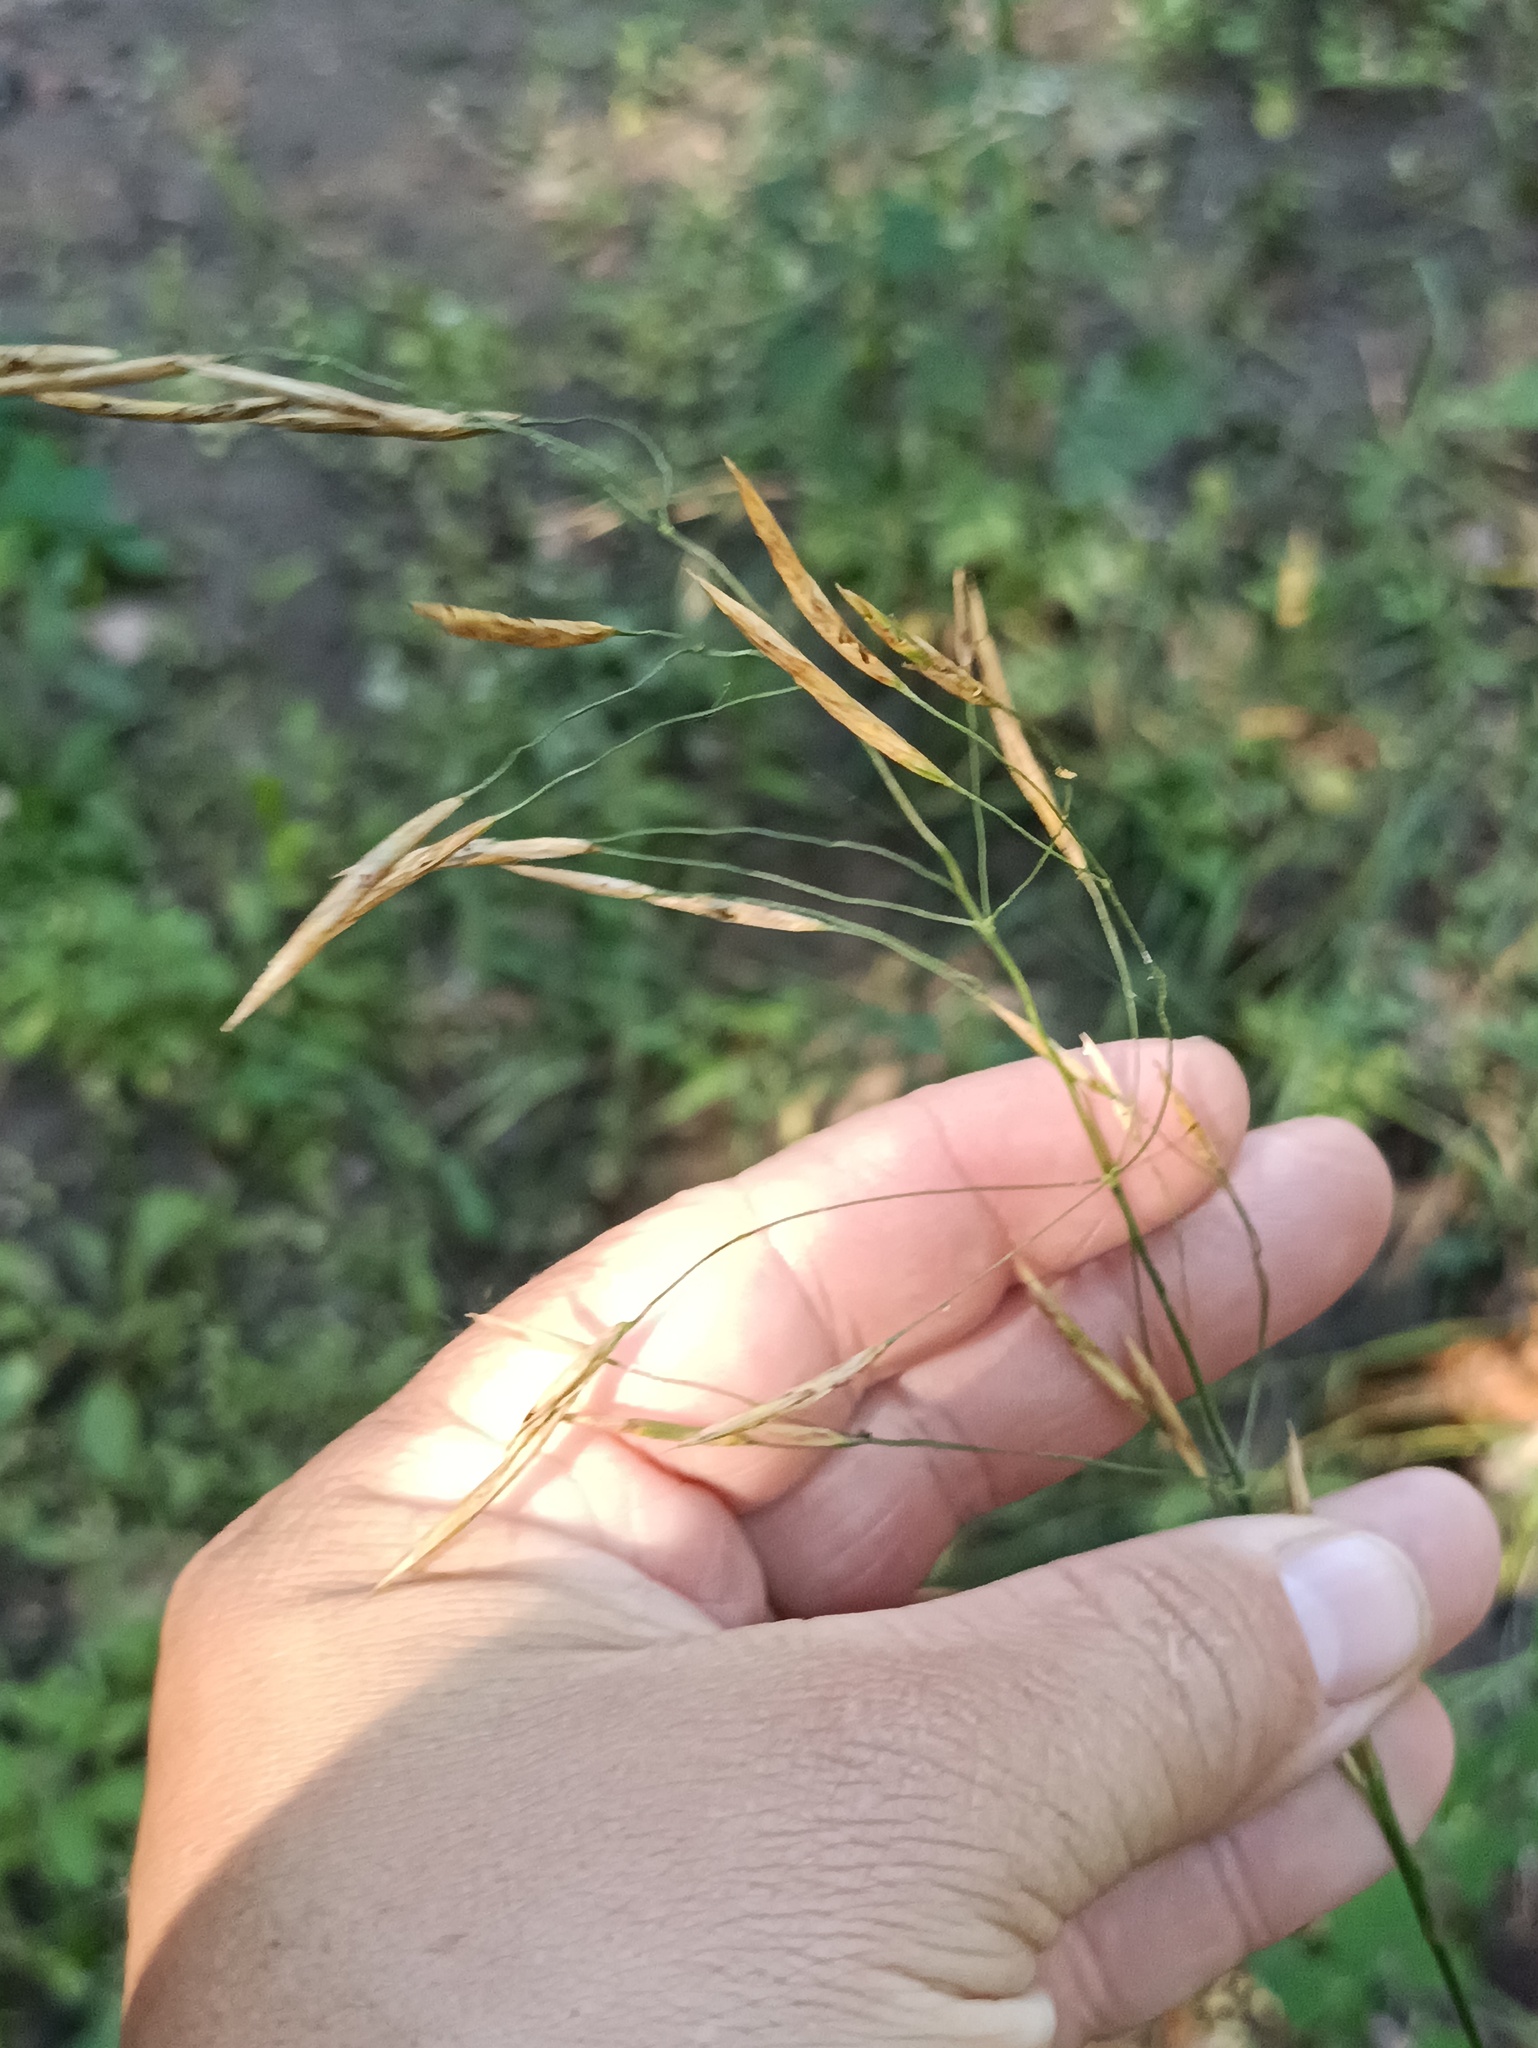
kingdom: Plantae
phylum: Tracheophyta
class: Liliopsida
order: Poales
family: Poaceae
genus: Bromus
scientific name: Bromus inermis
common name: Smooth brome
